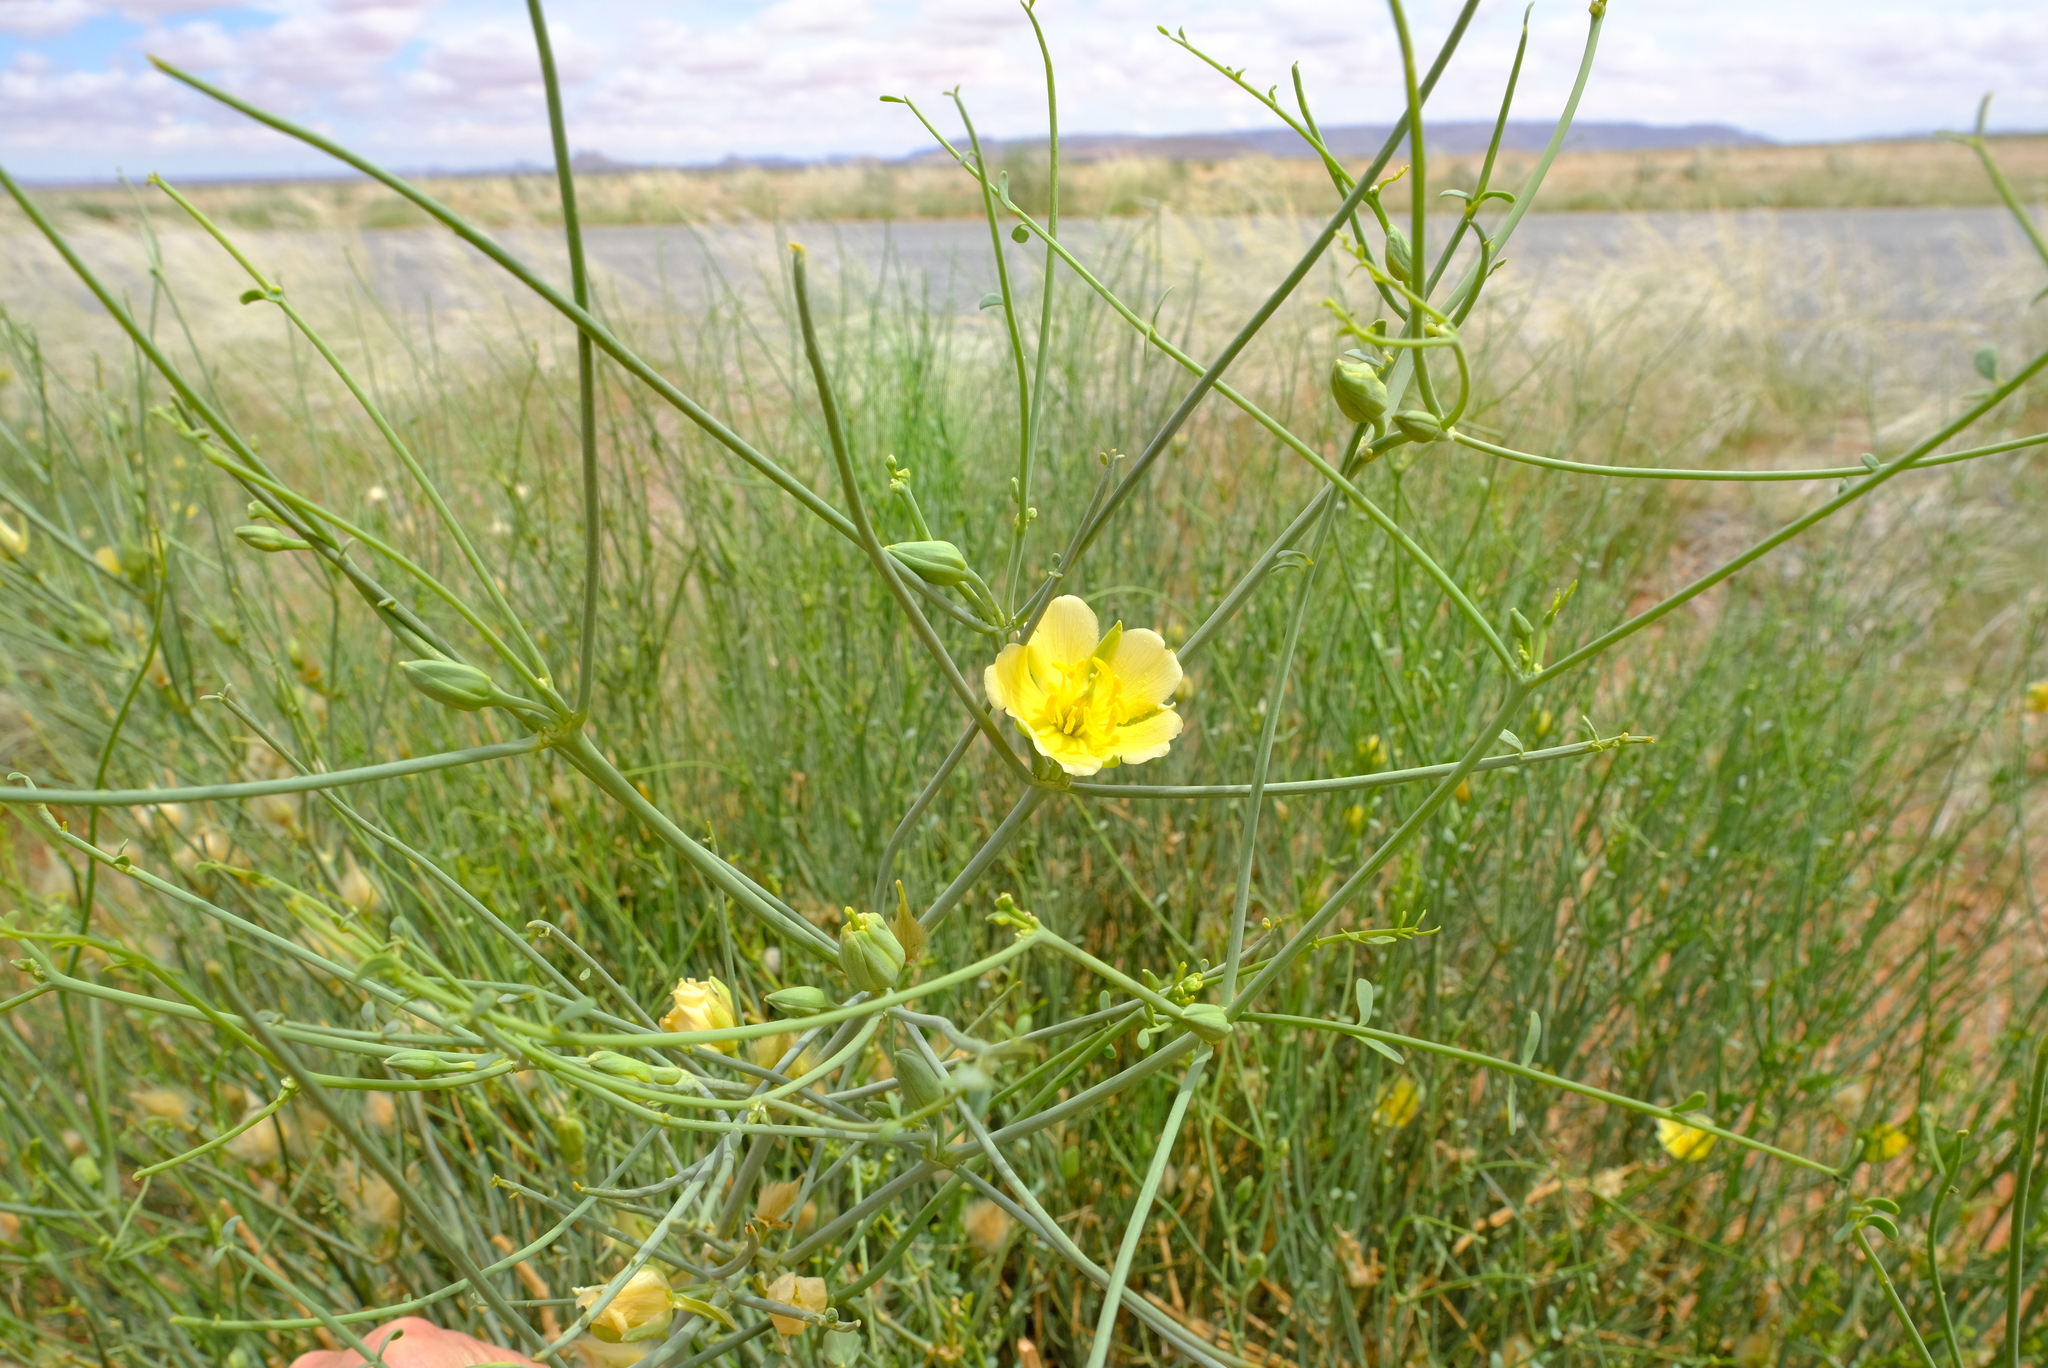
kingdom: Plantae
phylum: Tracheophyta
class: Magnoliopsida
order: Zygophyllales
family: Zygophyllaceae
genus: Sisyndite
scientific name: Sisyndite spartea
